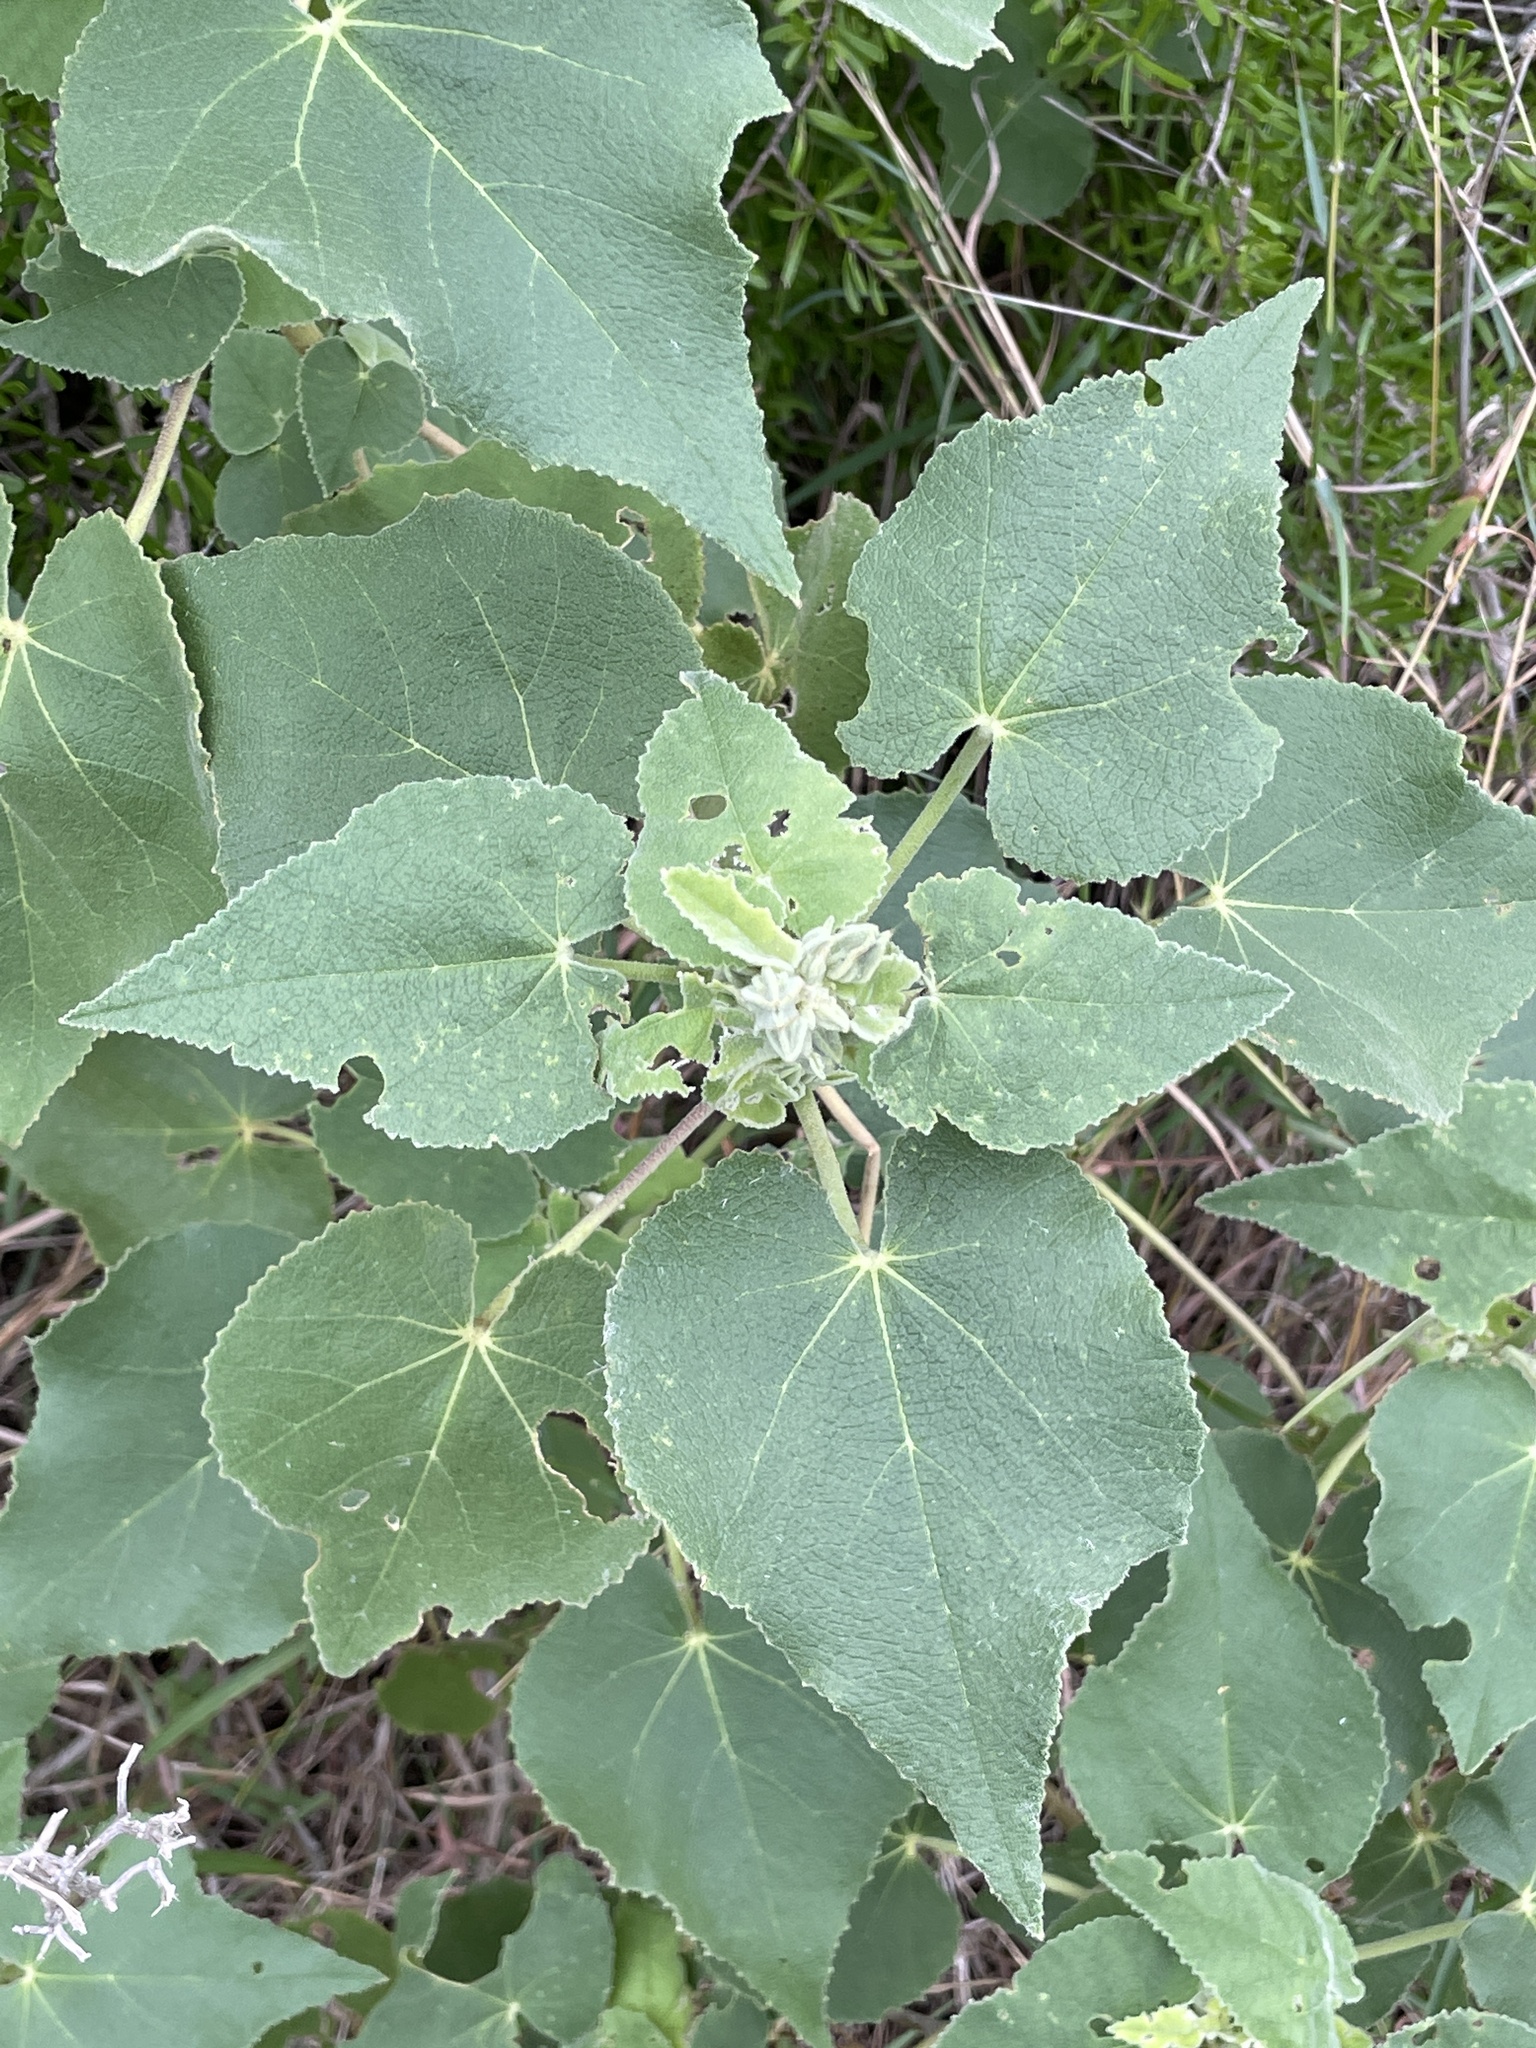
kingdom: Plantae
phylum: Tracheophyta
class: Magnoliopsida
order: Malvales
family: Malvaceae
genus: Allowissadula
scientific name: Allowissadula lozanoi
